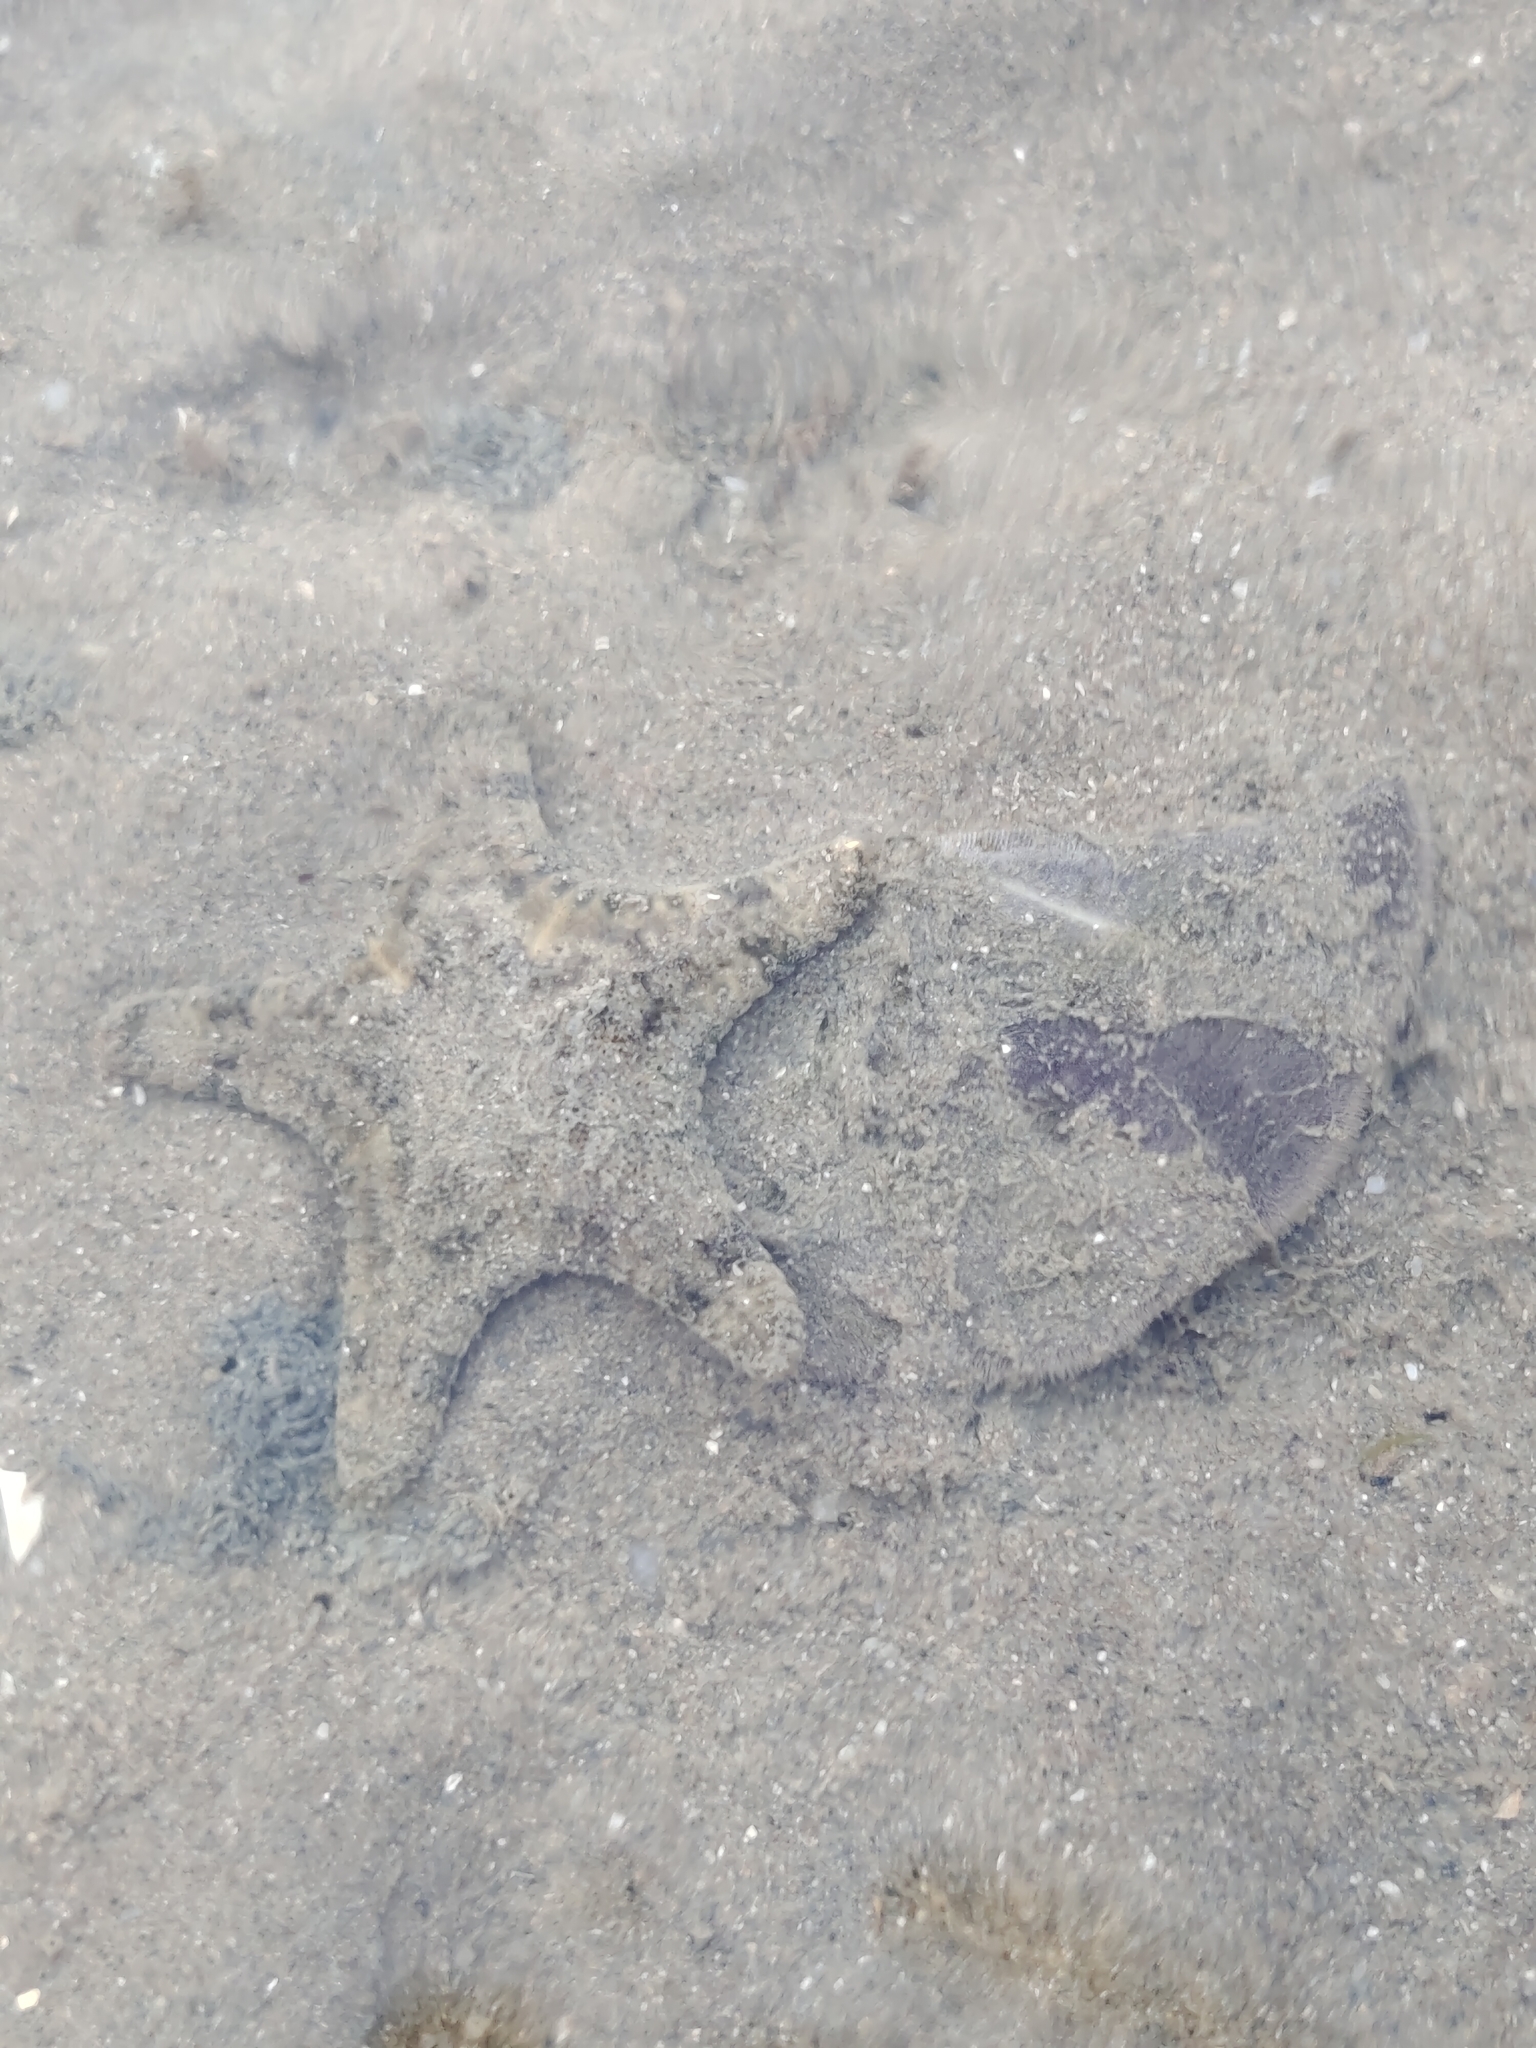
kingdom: Animalia
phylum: Echinodermata
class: Echinoidea
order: Clypeasteroida
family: Clypeasteridae
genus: Arachnoides
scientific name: Arachnoides placenta
